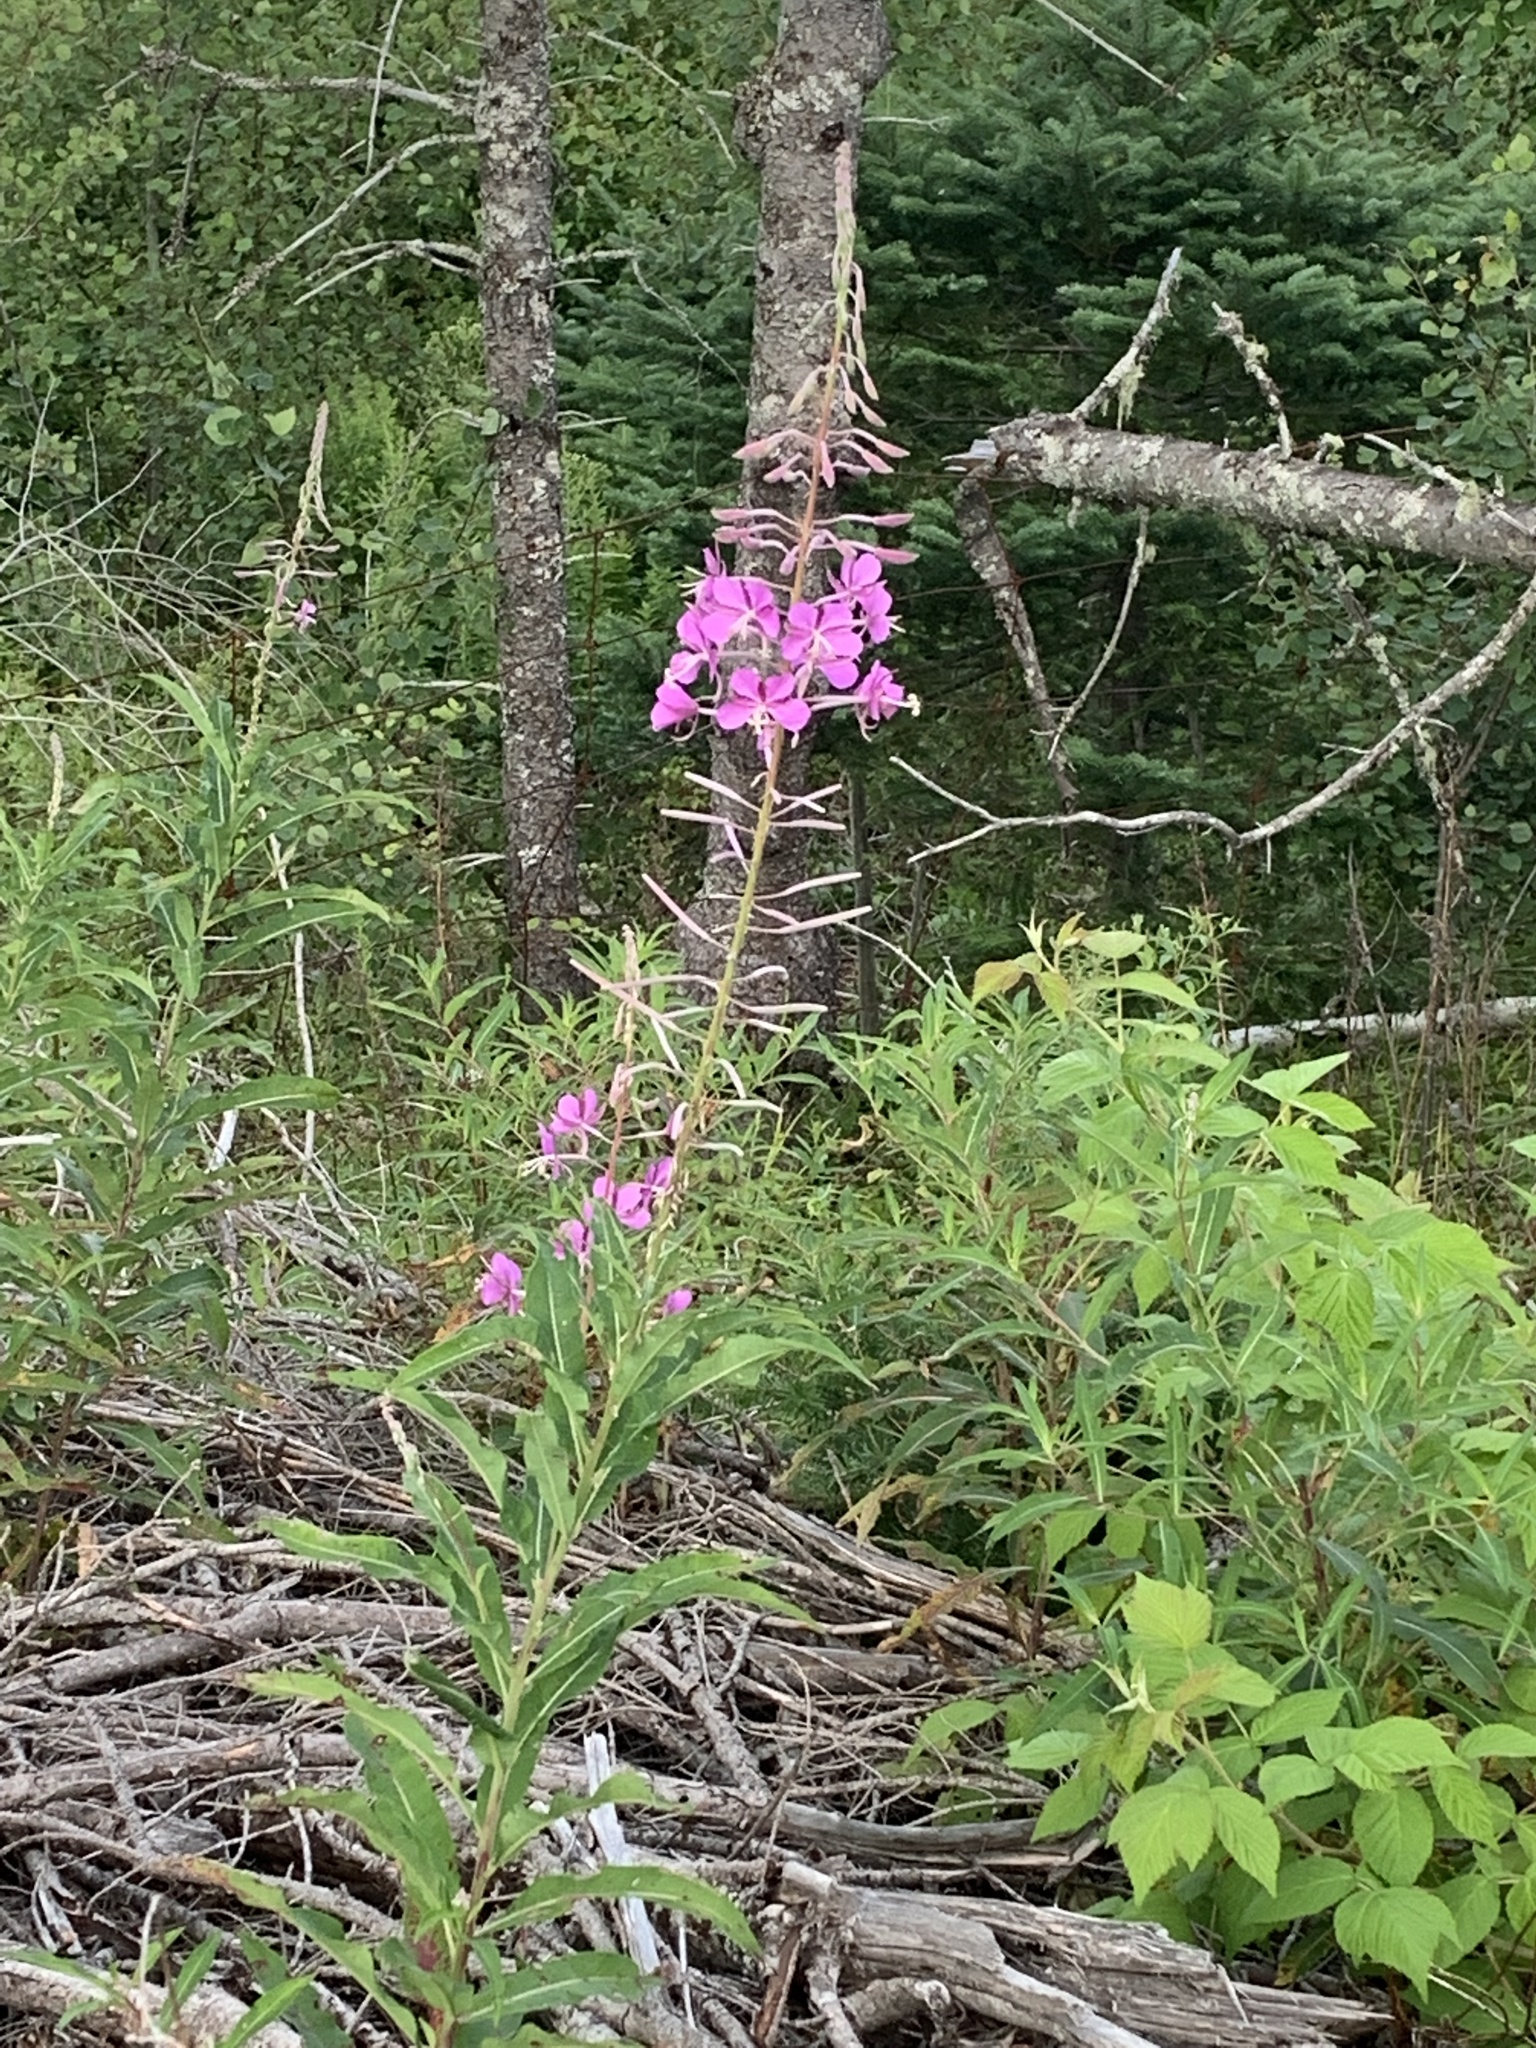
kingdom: Plantae
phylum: Tracheophyta
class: Magnoliopsida
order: Myrtales
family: Onagraceae
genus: Chamaenerion
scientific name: Chamaenerion angustifolium
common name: Fireweed
